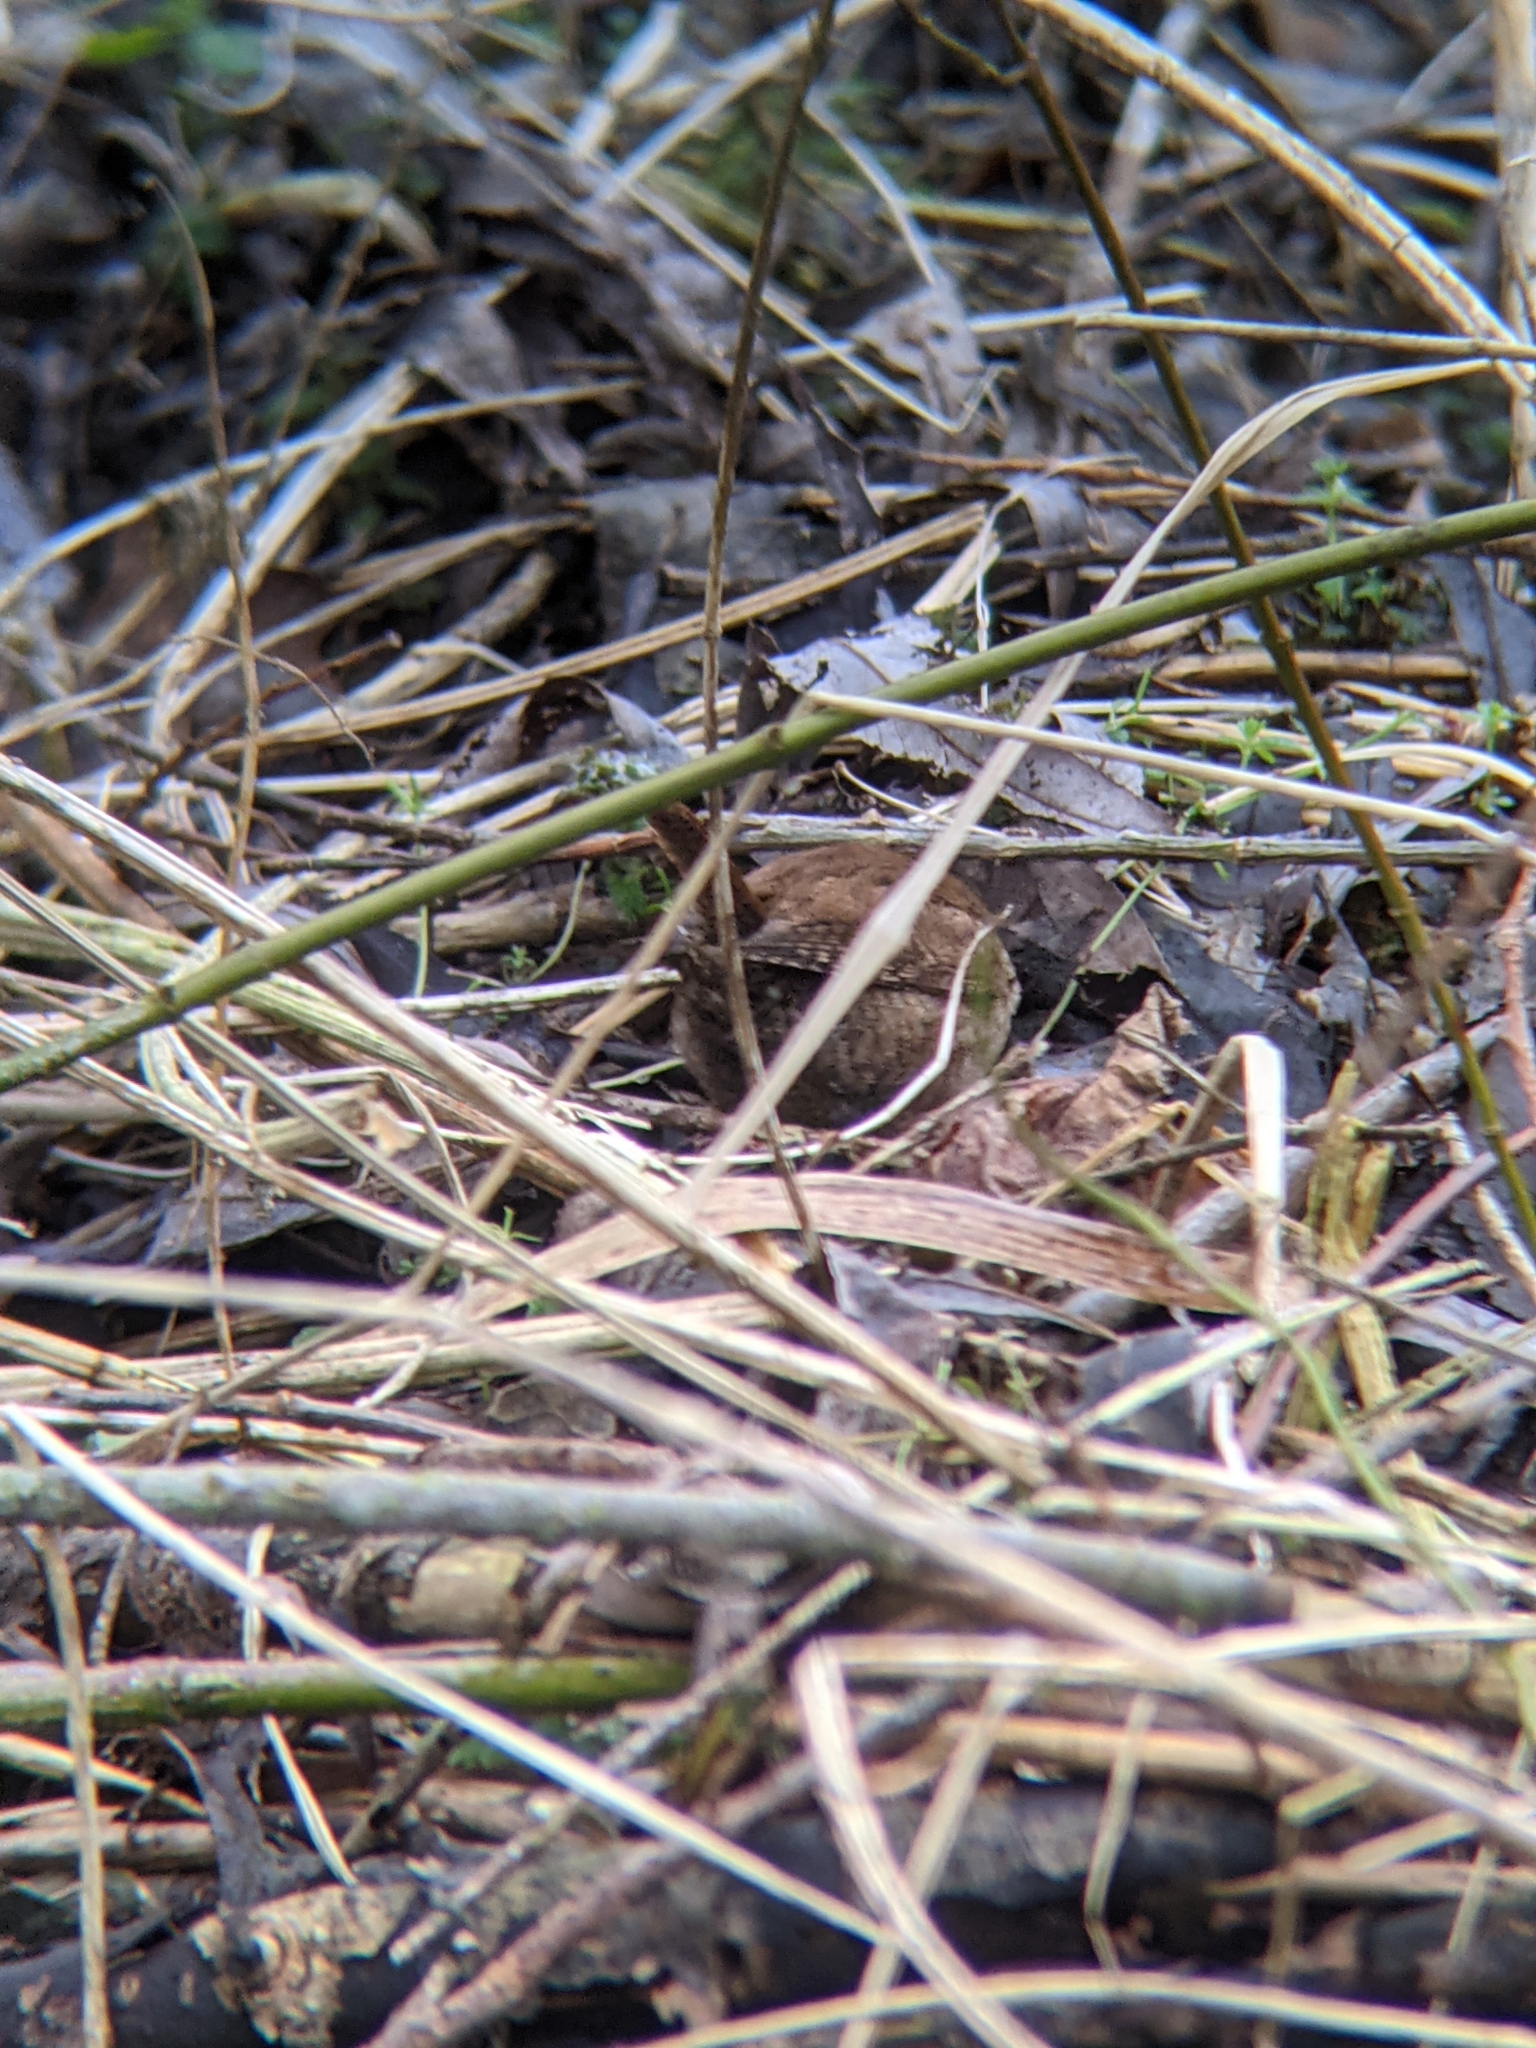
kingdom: Animalia
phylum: Chordata
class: Aves
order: Passeriformes
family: Troglodytidae
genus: Troglodytes
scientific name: Troglodytes troglodytes
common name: Eurasian wren
